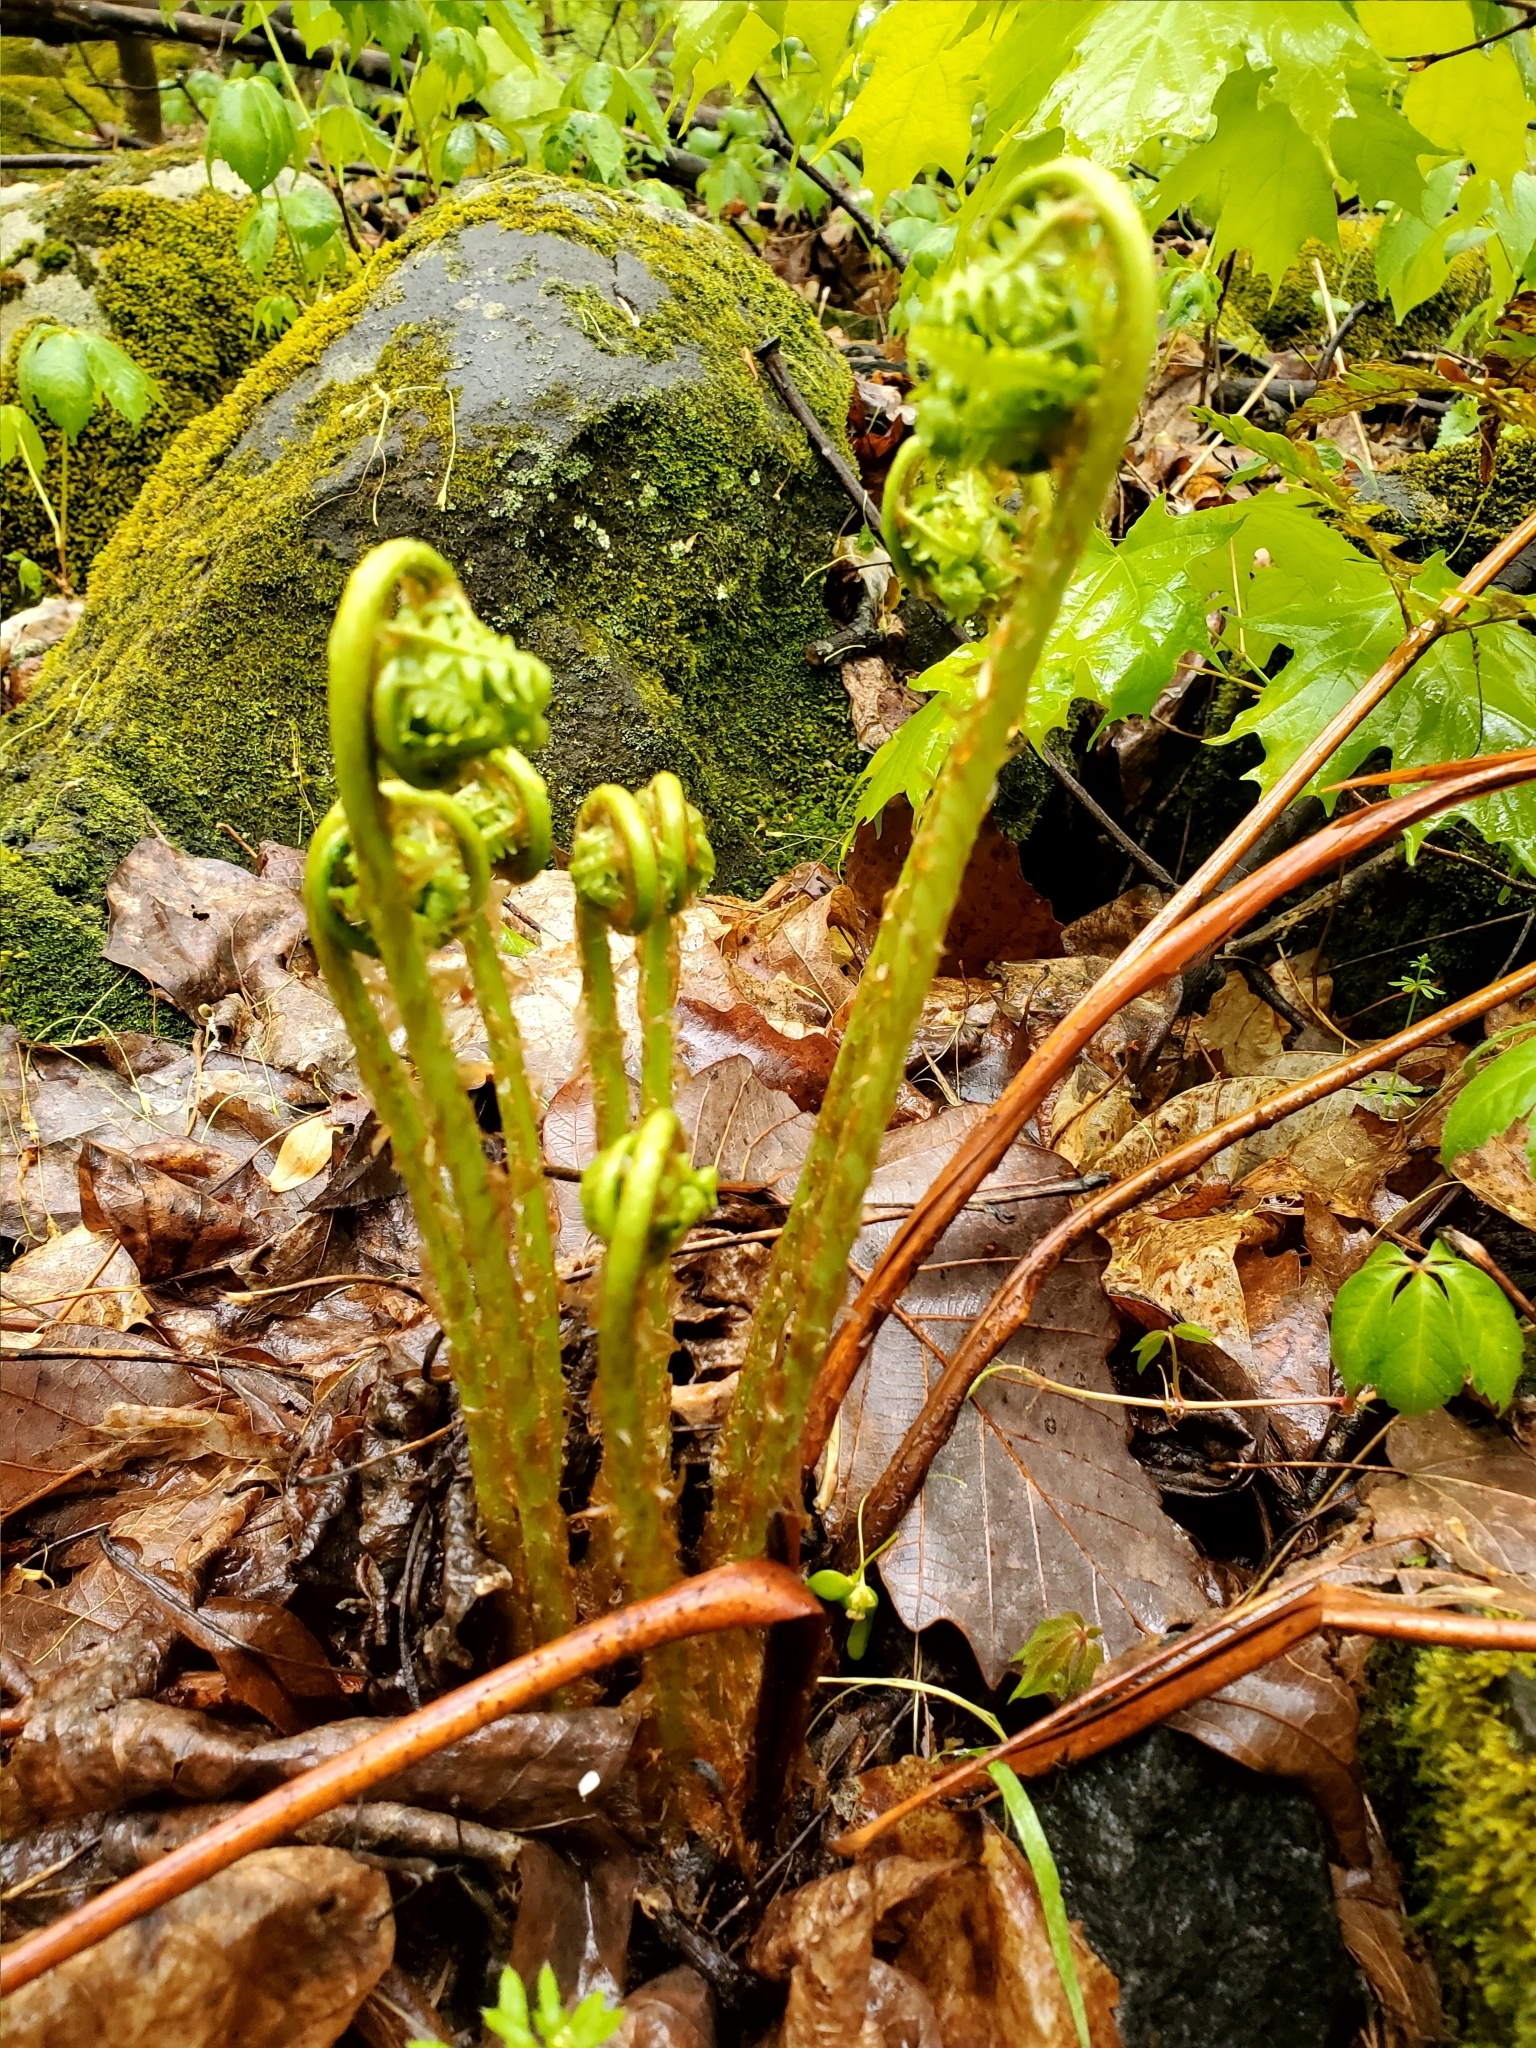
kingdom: Plantae
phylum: Tracheophyta
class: Polypodiopsida
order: Polypodiales
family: Dryopteridaceae
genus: Dryopteris
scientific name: Dryopteris marginalis
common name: Marginal wood fern
